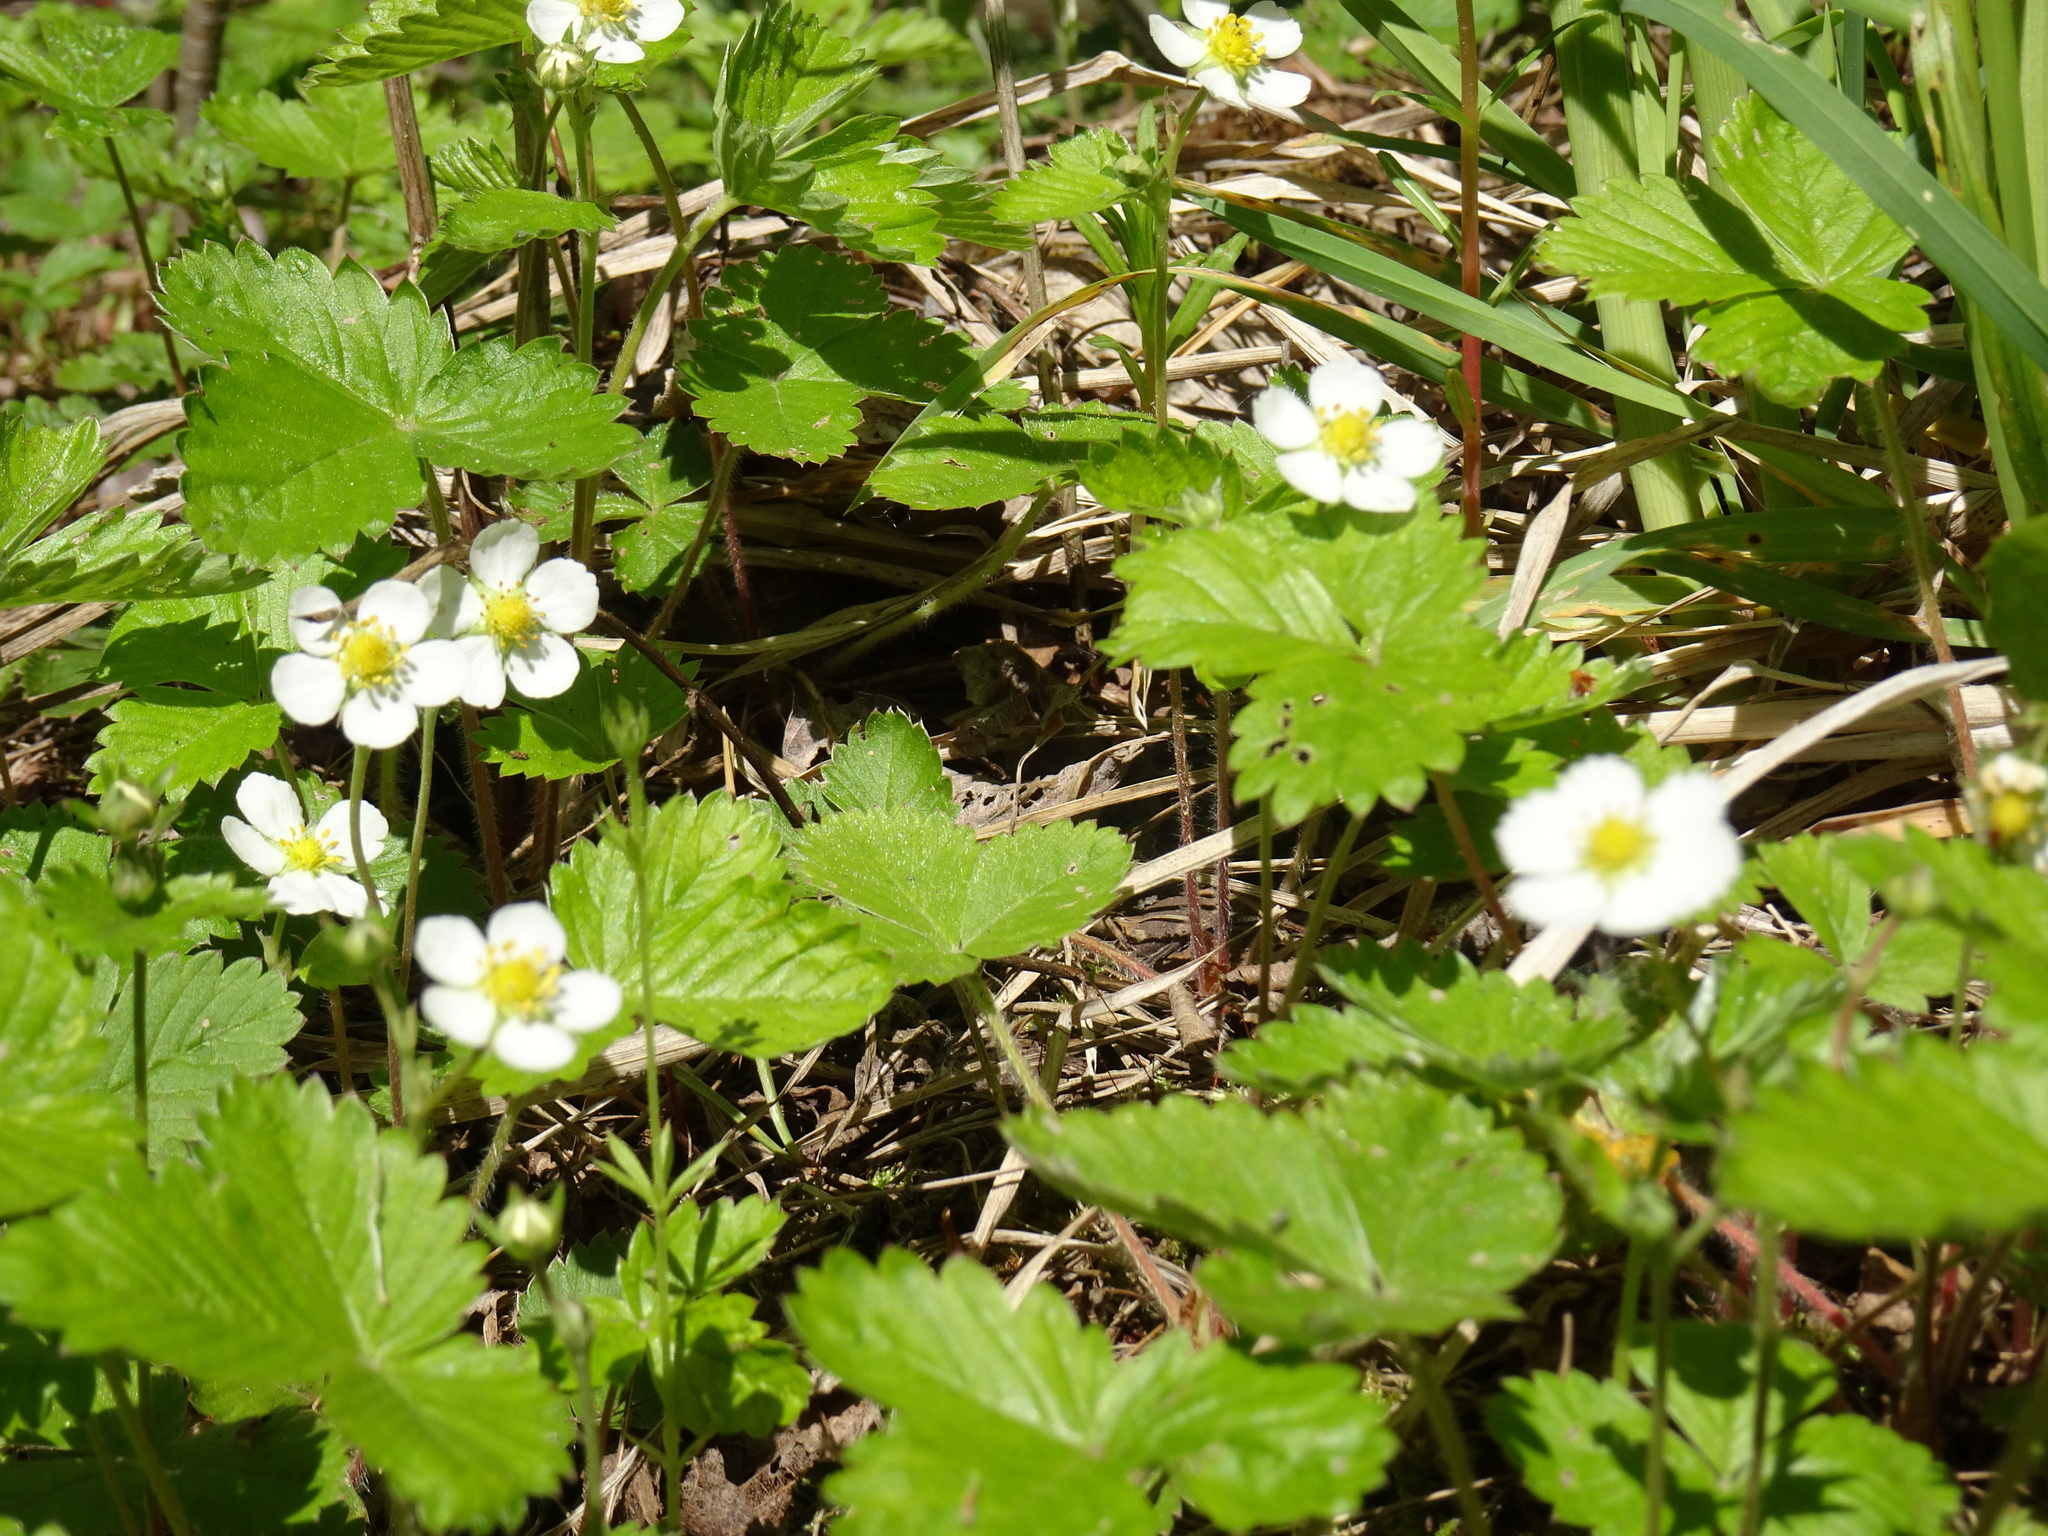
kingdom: Plantae
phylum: Tracheophyta
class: Magnoliopsida
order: Rosales
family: Rosaceae
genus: Fragaria
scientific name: Fragaria vesca
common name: Wild strawberry
